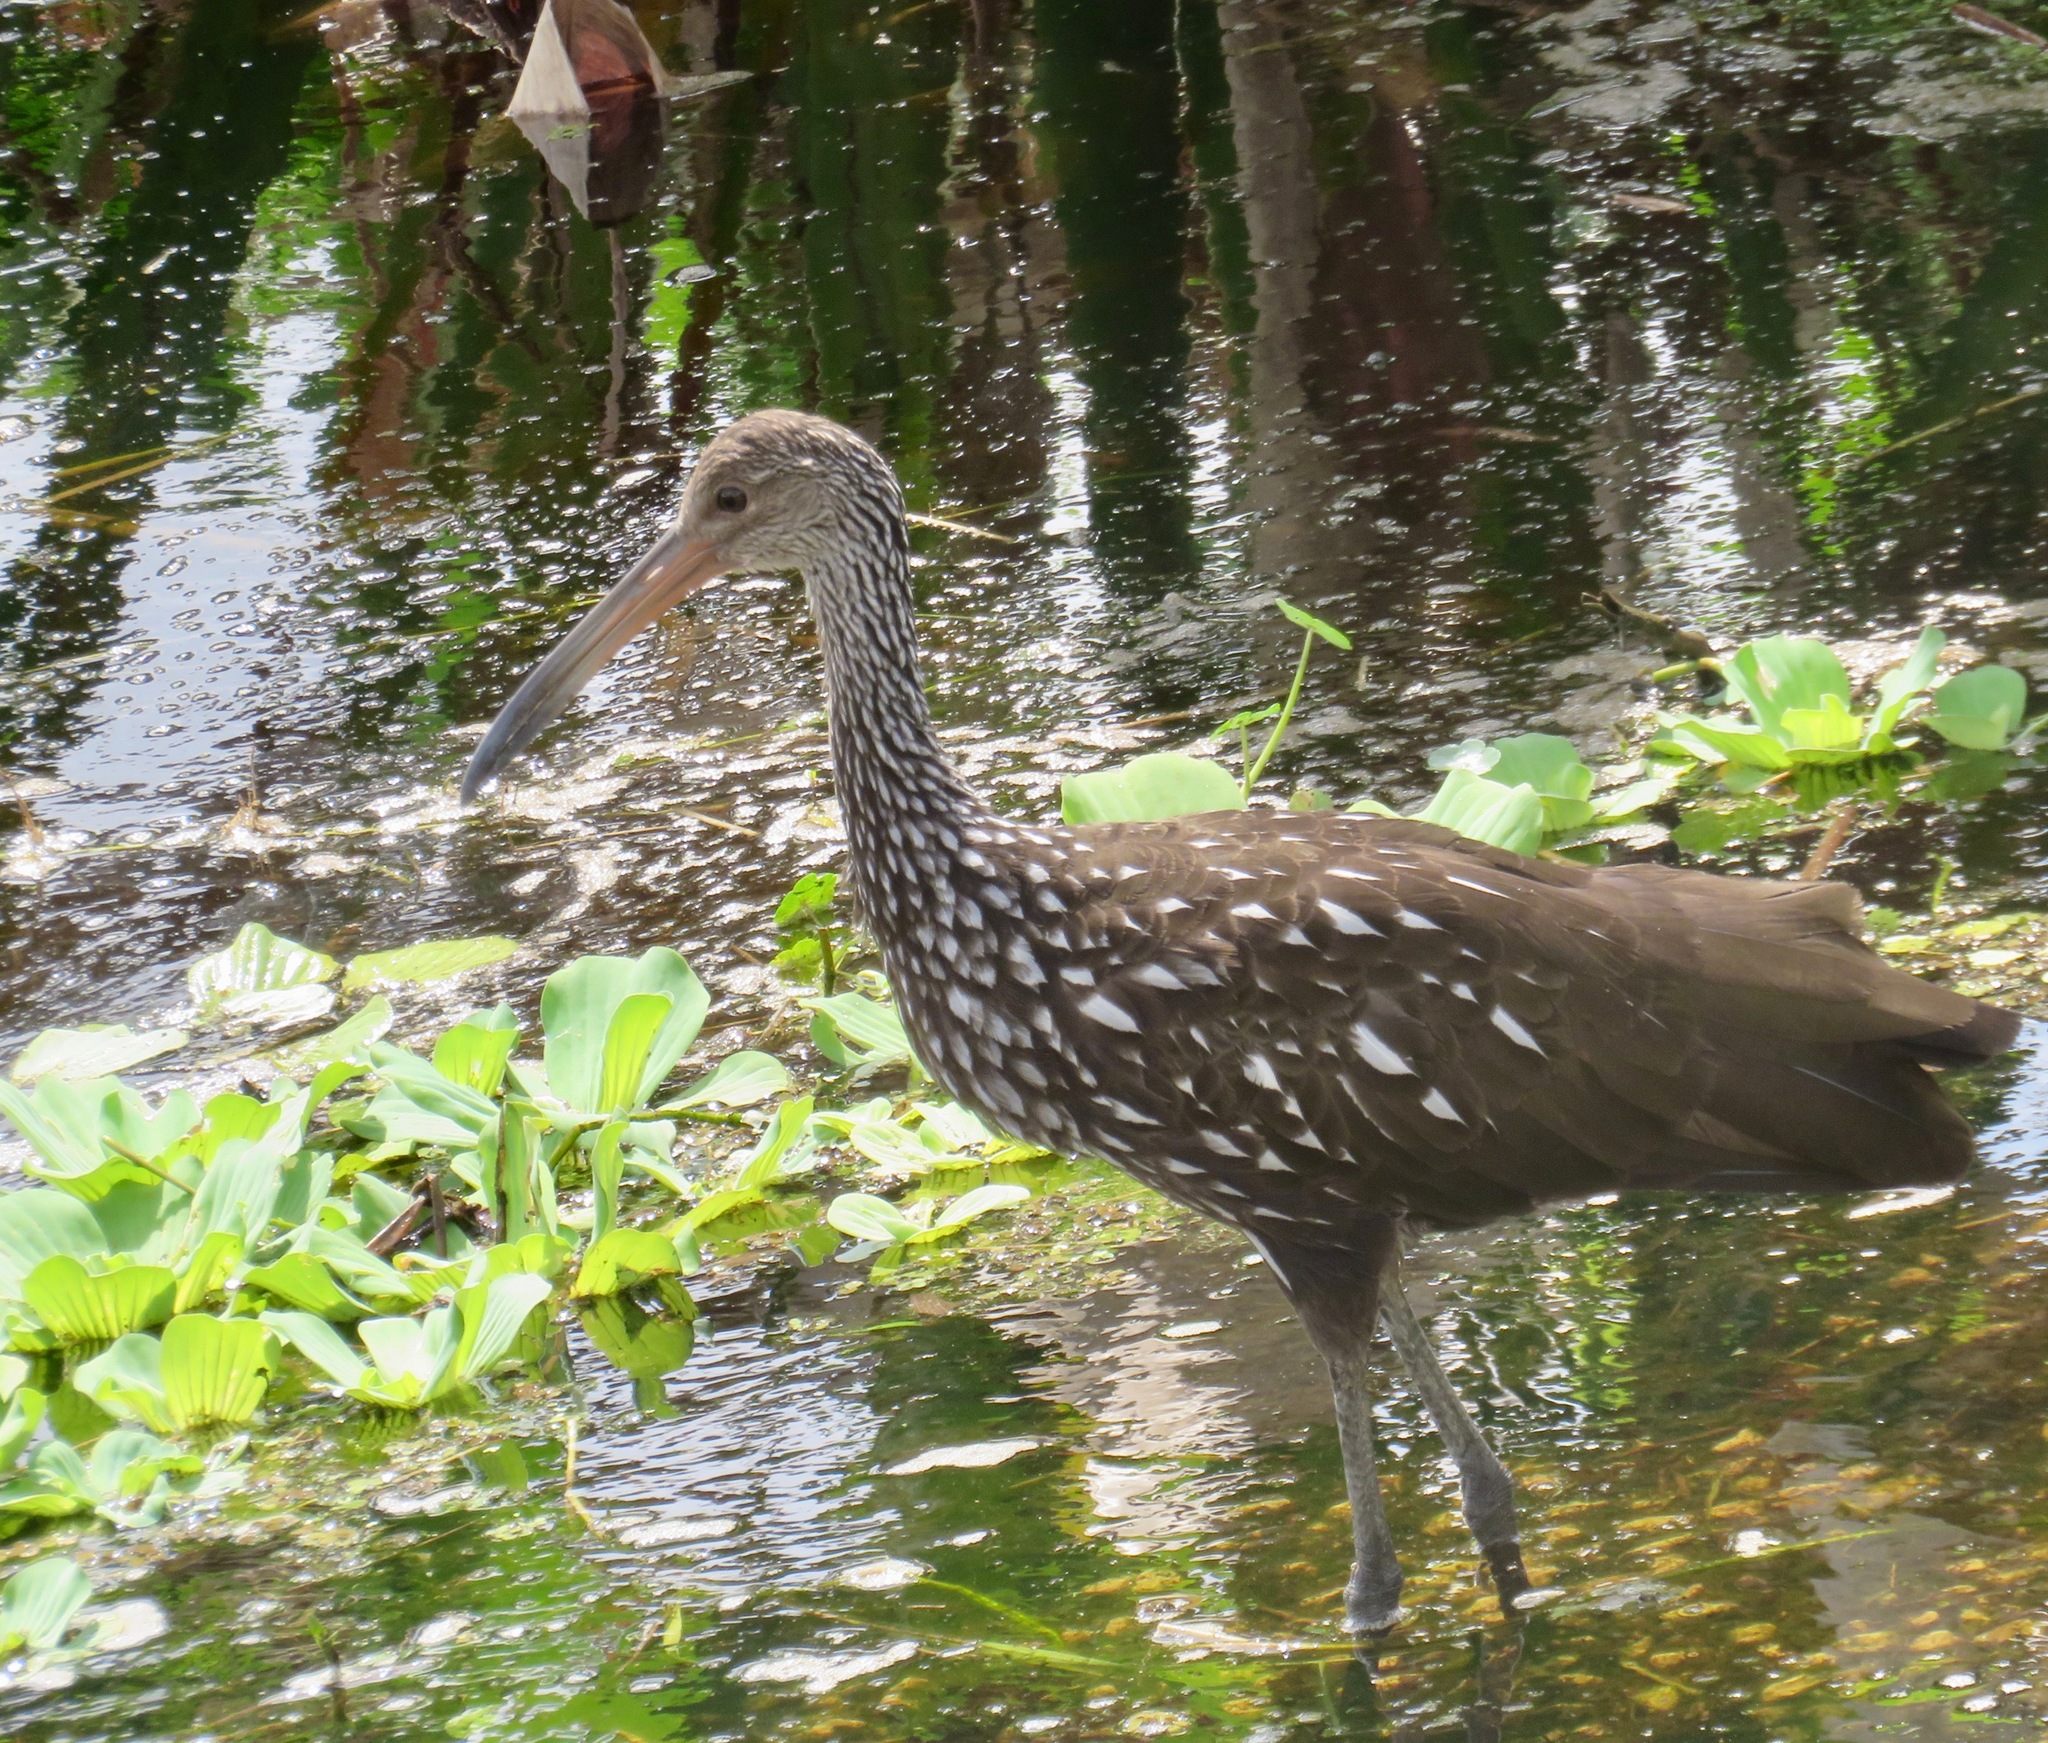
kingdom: Animalia
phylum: Chordata
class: Aves
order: Gruiformes
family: Aramidae
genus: Aramus
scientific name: Aramus guarauna
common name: Limpkin
